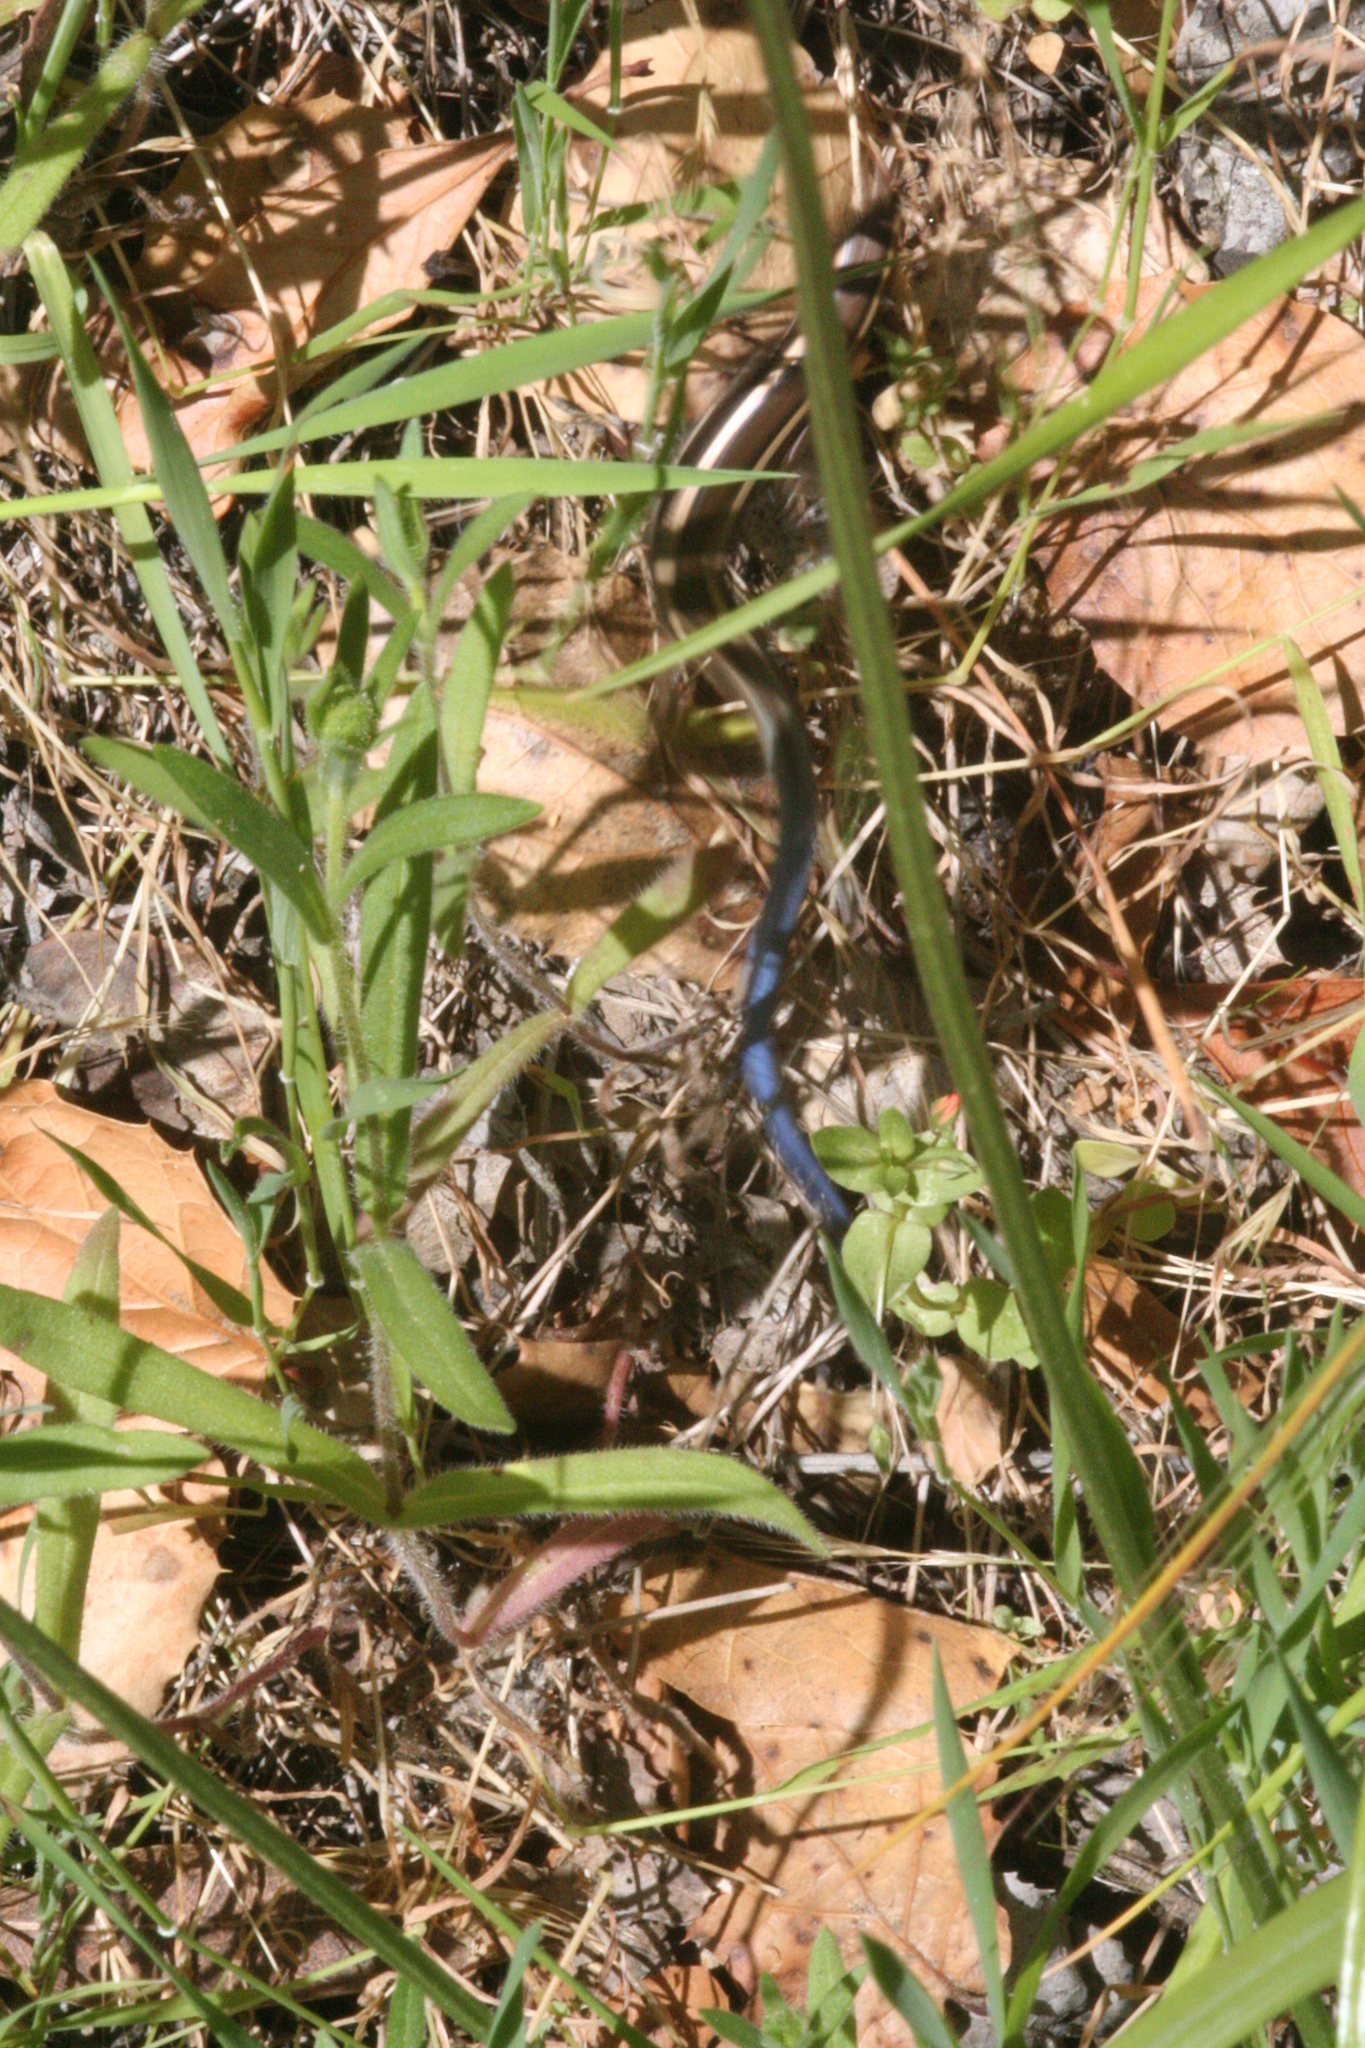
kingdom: Animalia
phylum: Chordata
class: Squamata
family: Scincidae
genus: Plestiodon
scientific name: Plestiodon skiltonianus
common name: Coronado island skink [interparietalis]
